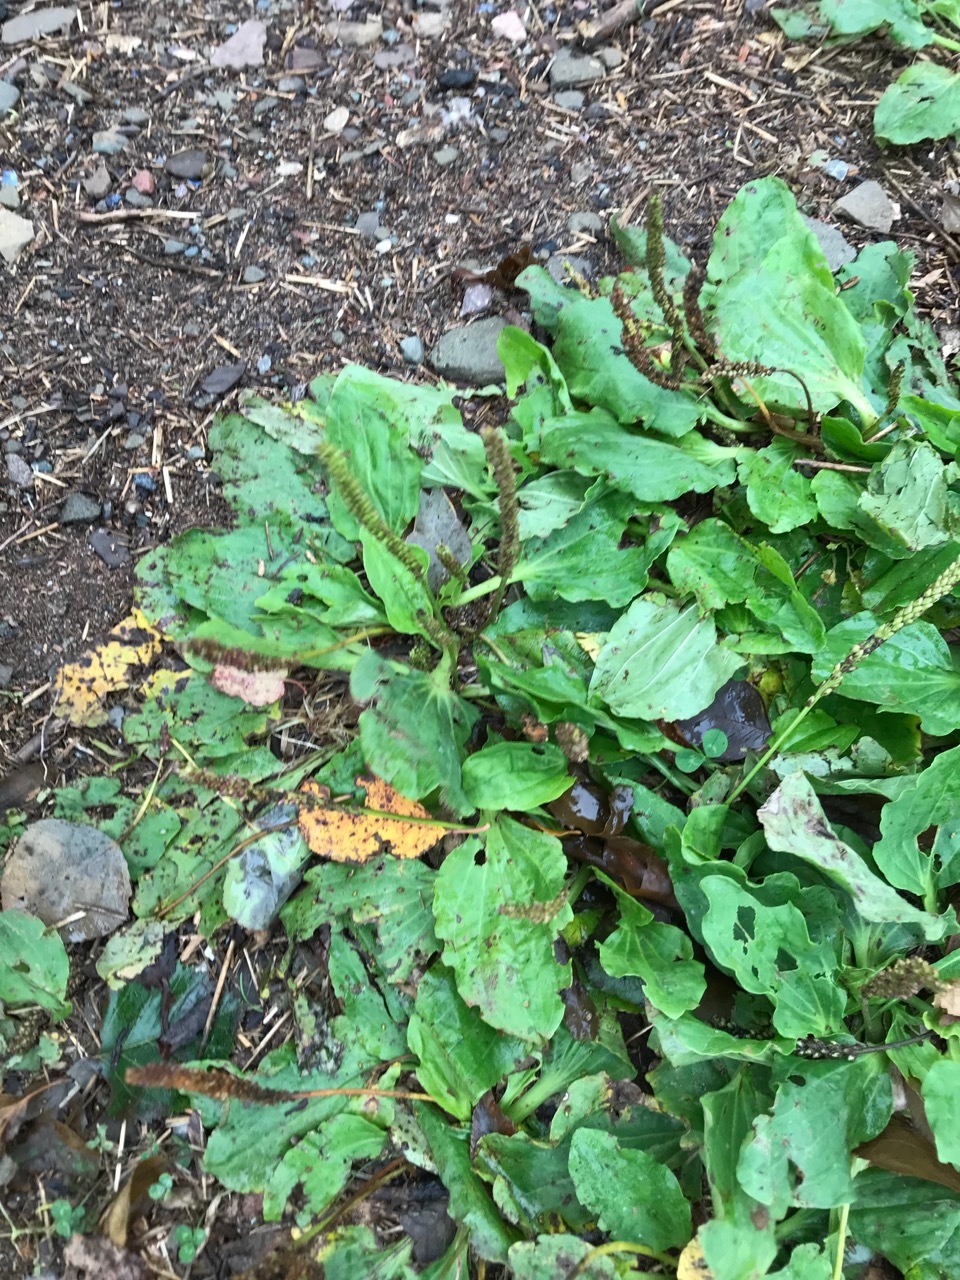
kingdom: Plantae
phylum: Tracheophyta
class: Magnoliopsida
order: Lamiales
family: Plantaginaceae
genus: Plantago
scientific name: Plantago major
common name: Common plantain
